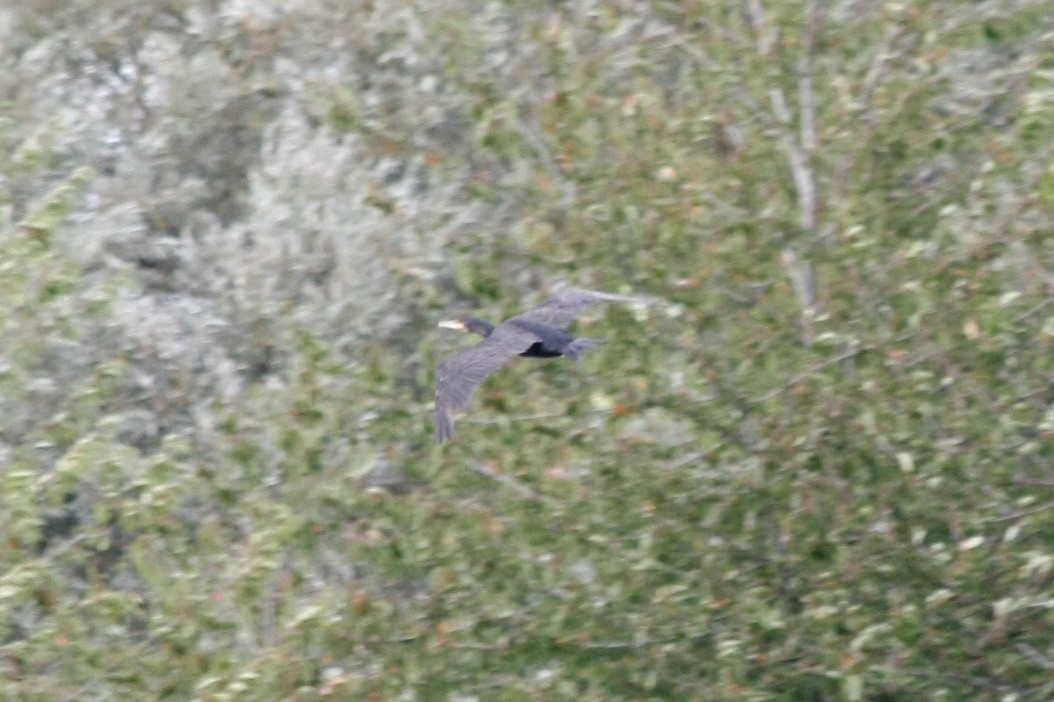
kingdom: Animalia
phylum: Chordata
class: Aves
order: Suliformes
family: Phalacrocoracidae
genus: Phalacrocorax
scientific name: Phalacrocorax carbo
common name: Great cormorant
